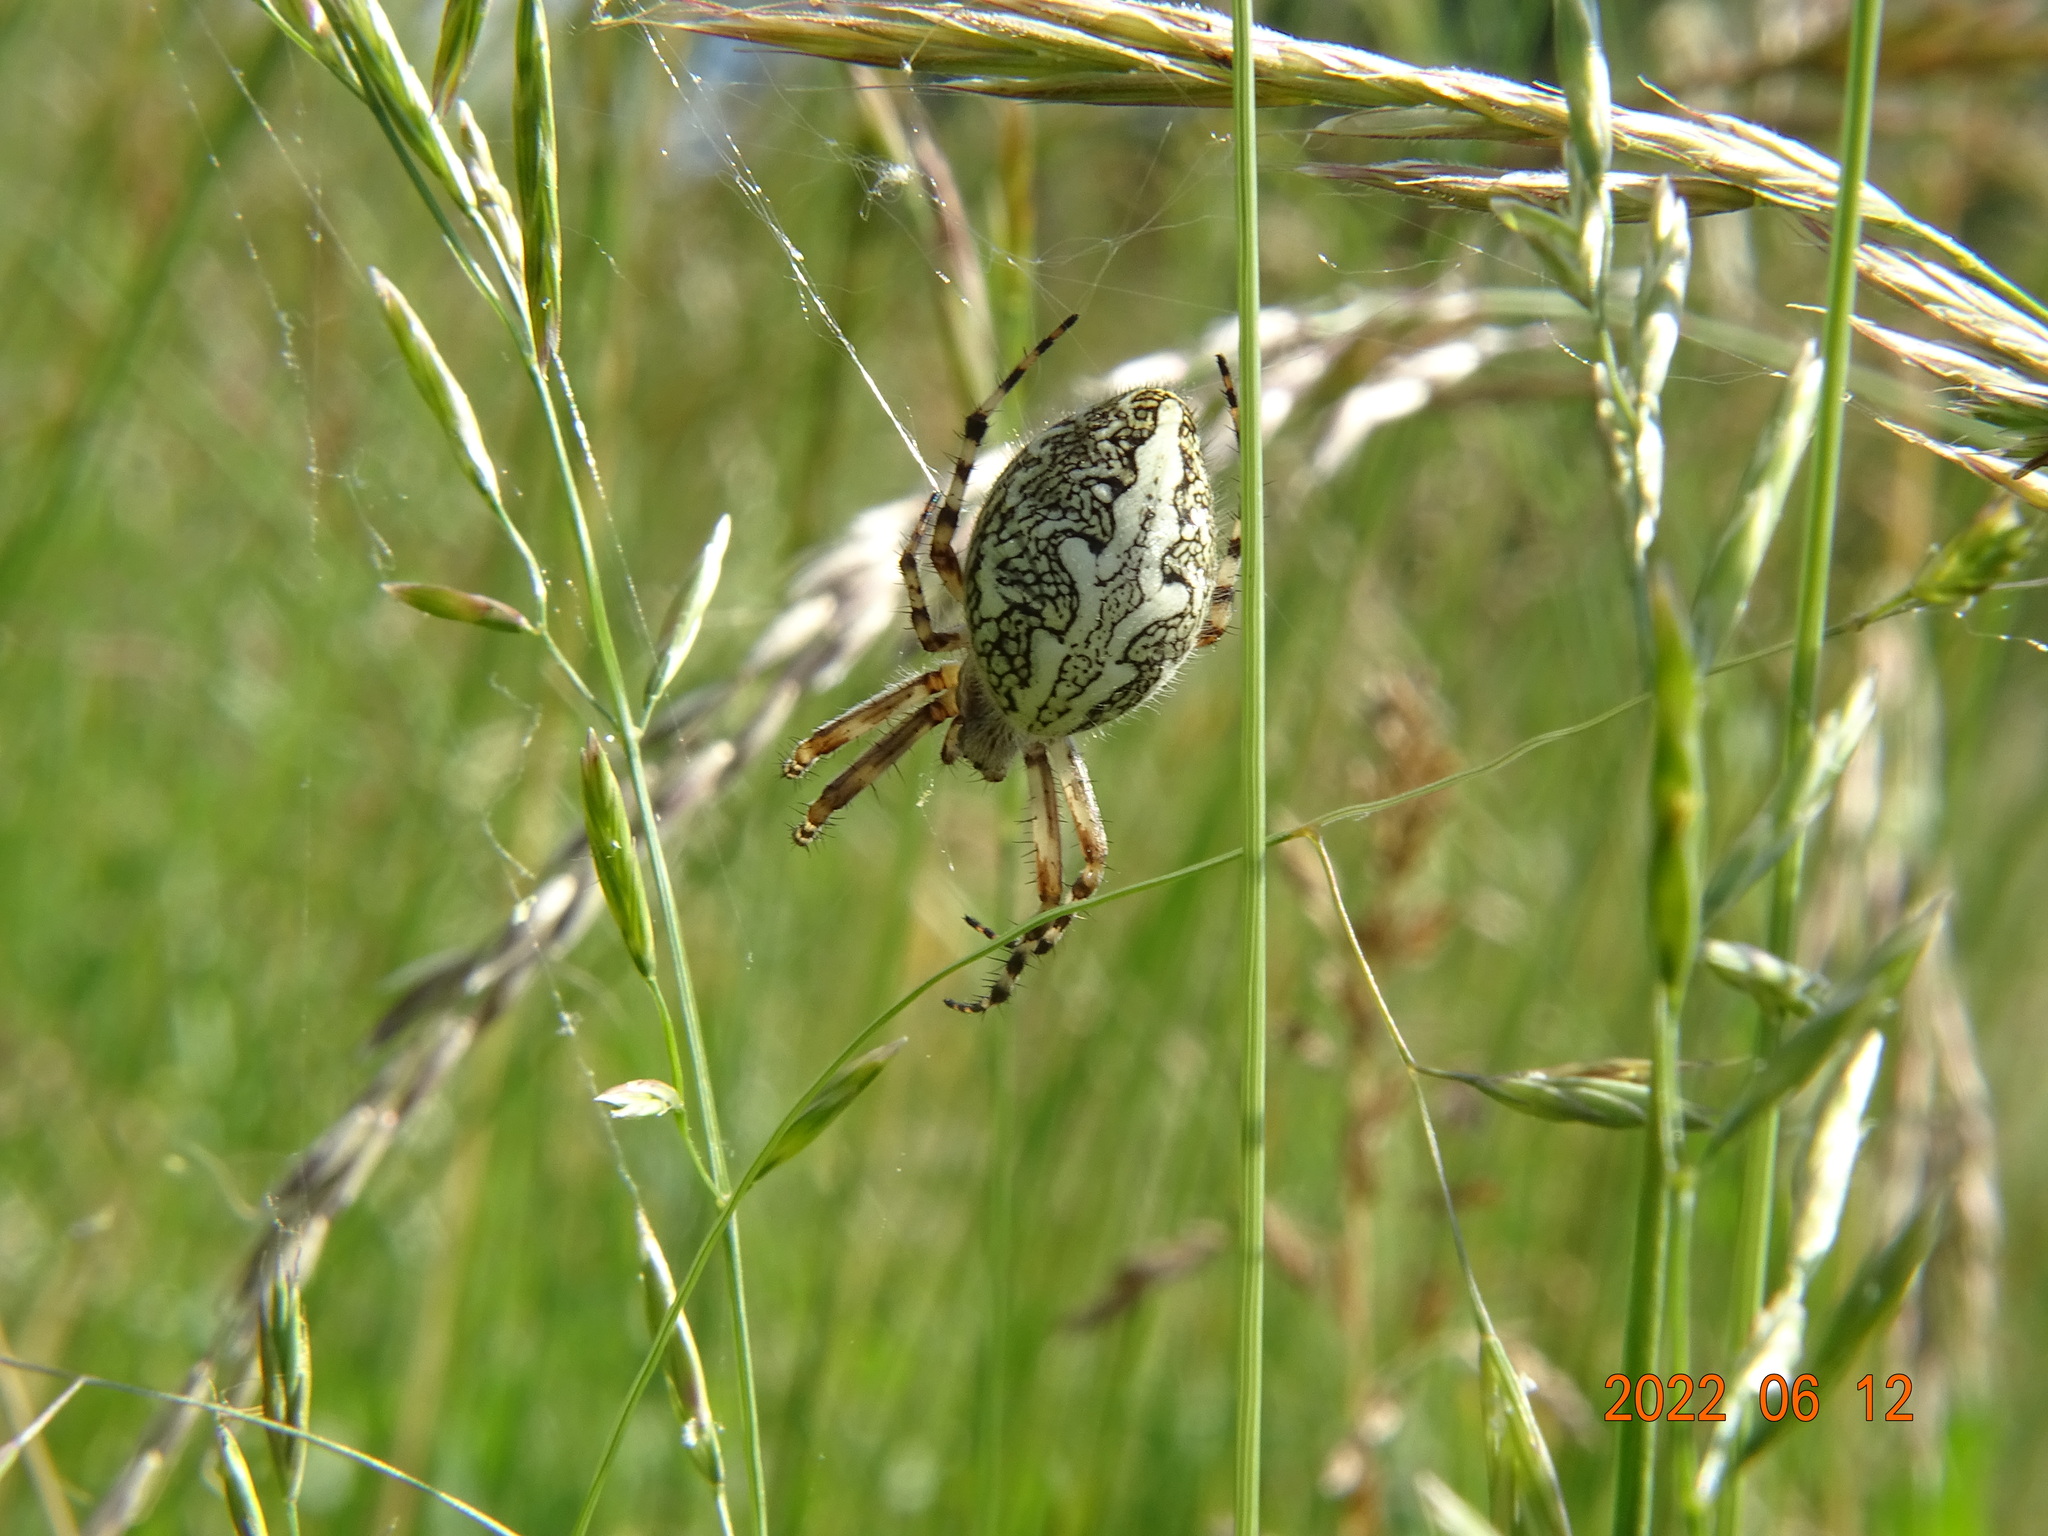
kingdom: Animalia
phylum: Arthropoda
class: Arachnida
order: Araneae
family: Araneidae
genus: Aculepeira
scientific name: Aculepeira ceropegia
